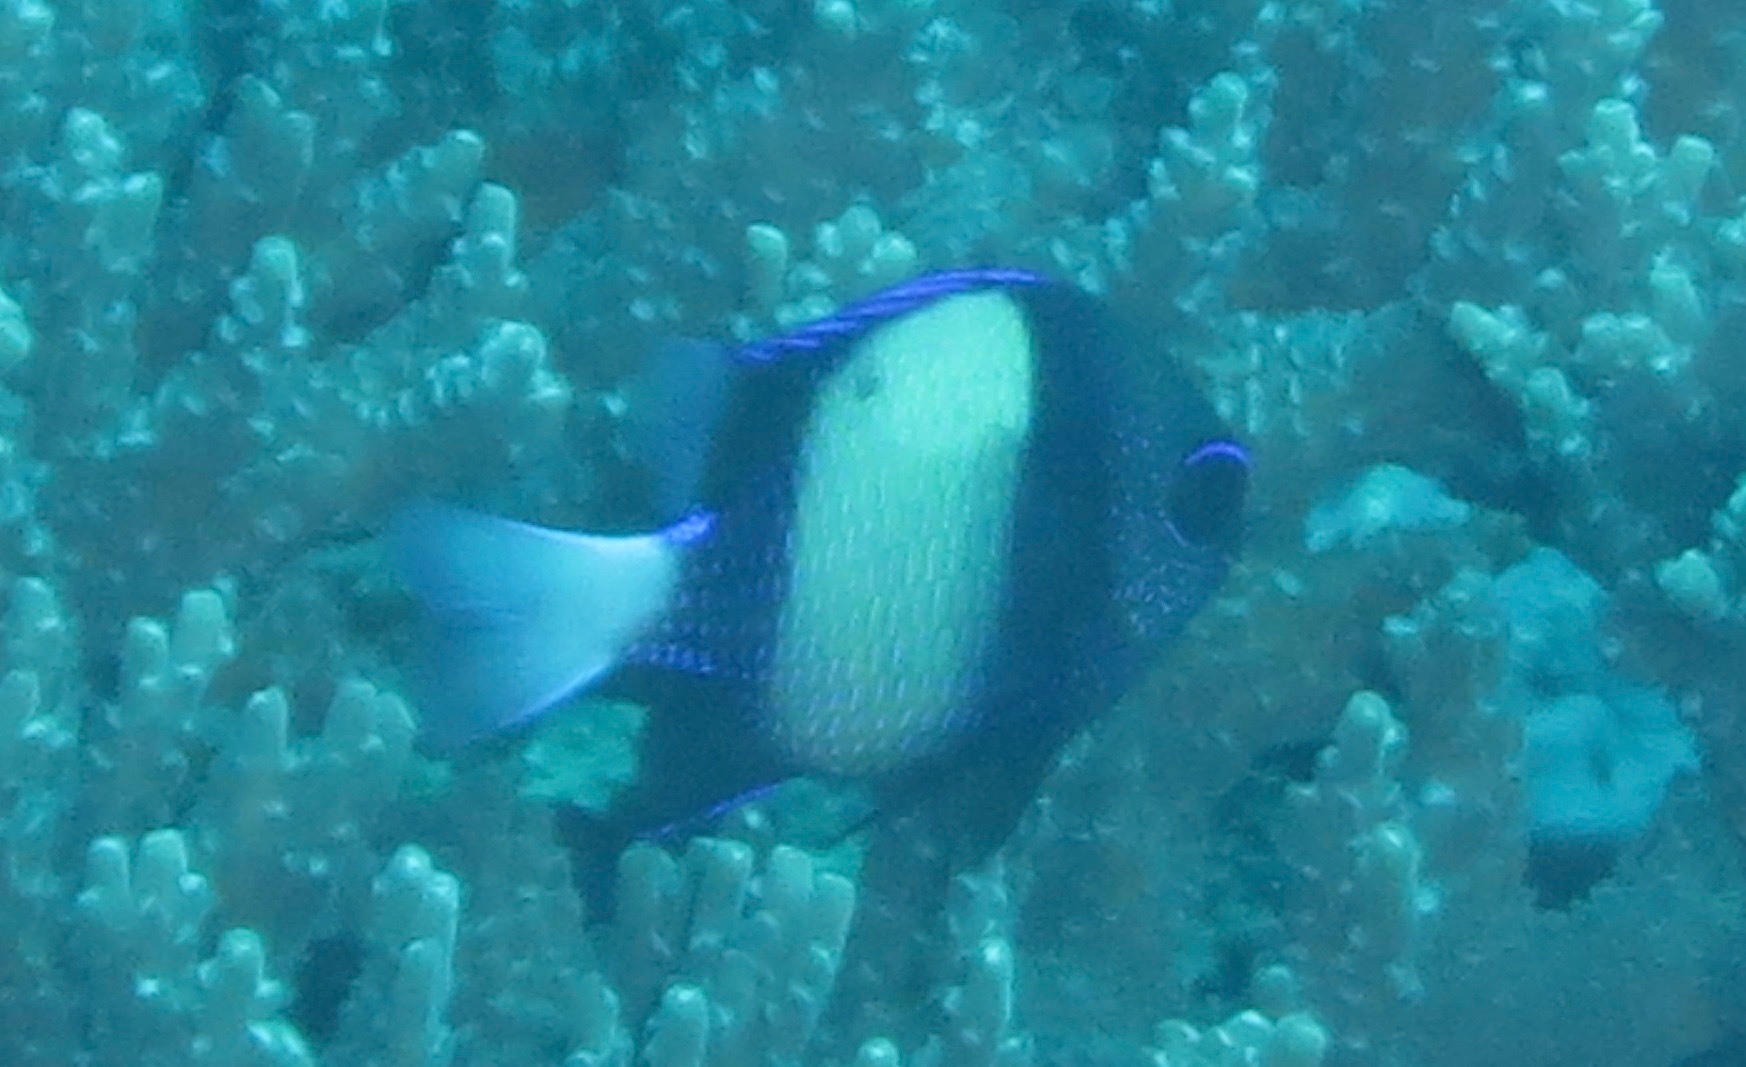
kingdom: Animalia
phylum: Chordata
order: Perciformes
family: Pomacentridae
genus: Dascyllus
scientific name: Dascyllus carneus
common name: Indian dascyllus
